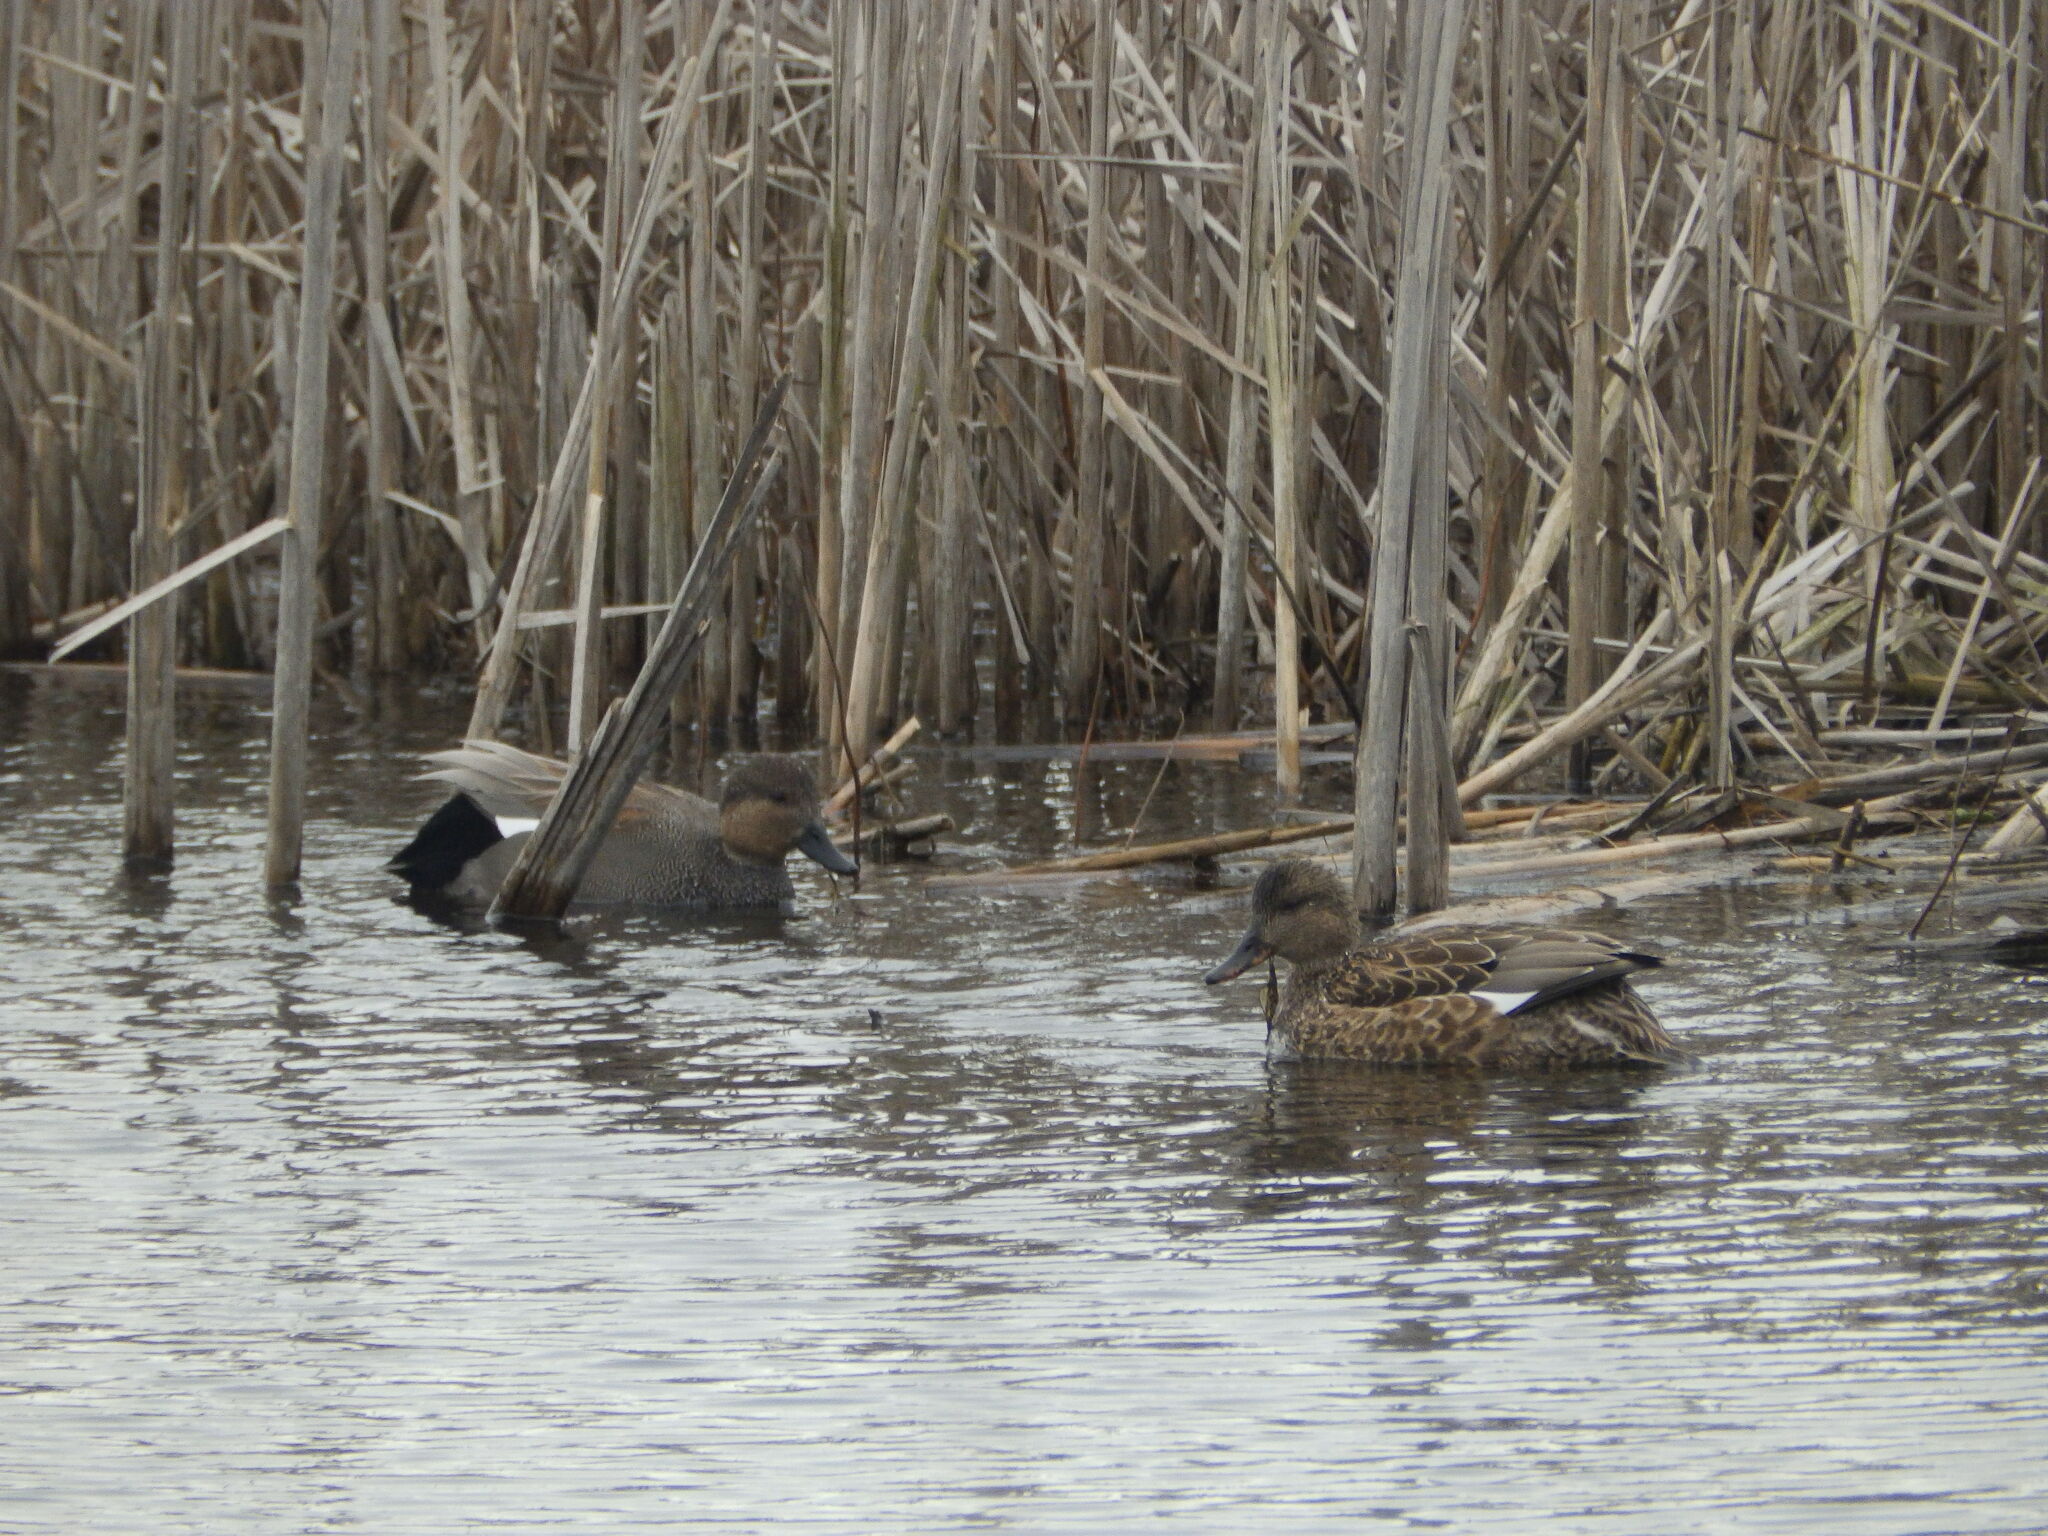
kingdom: Animalia
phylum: Chordata
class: Aves
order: Anseriformes
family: Anatidae
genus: Mareca
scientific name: Mareca strepera
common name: Gadwall
